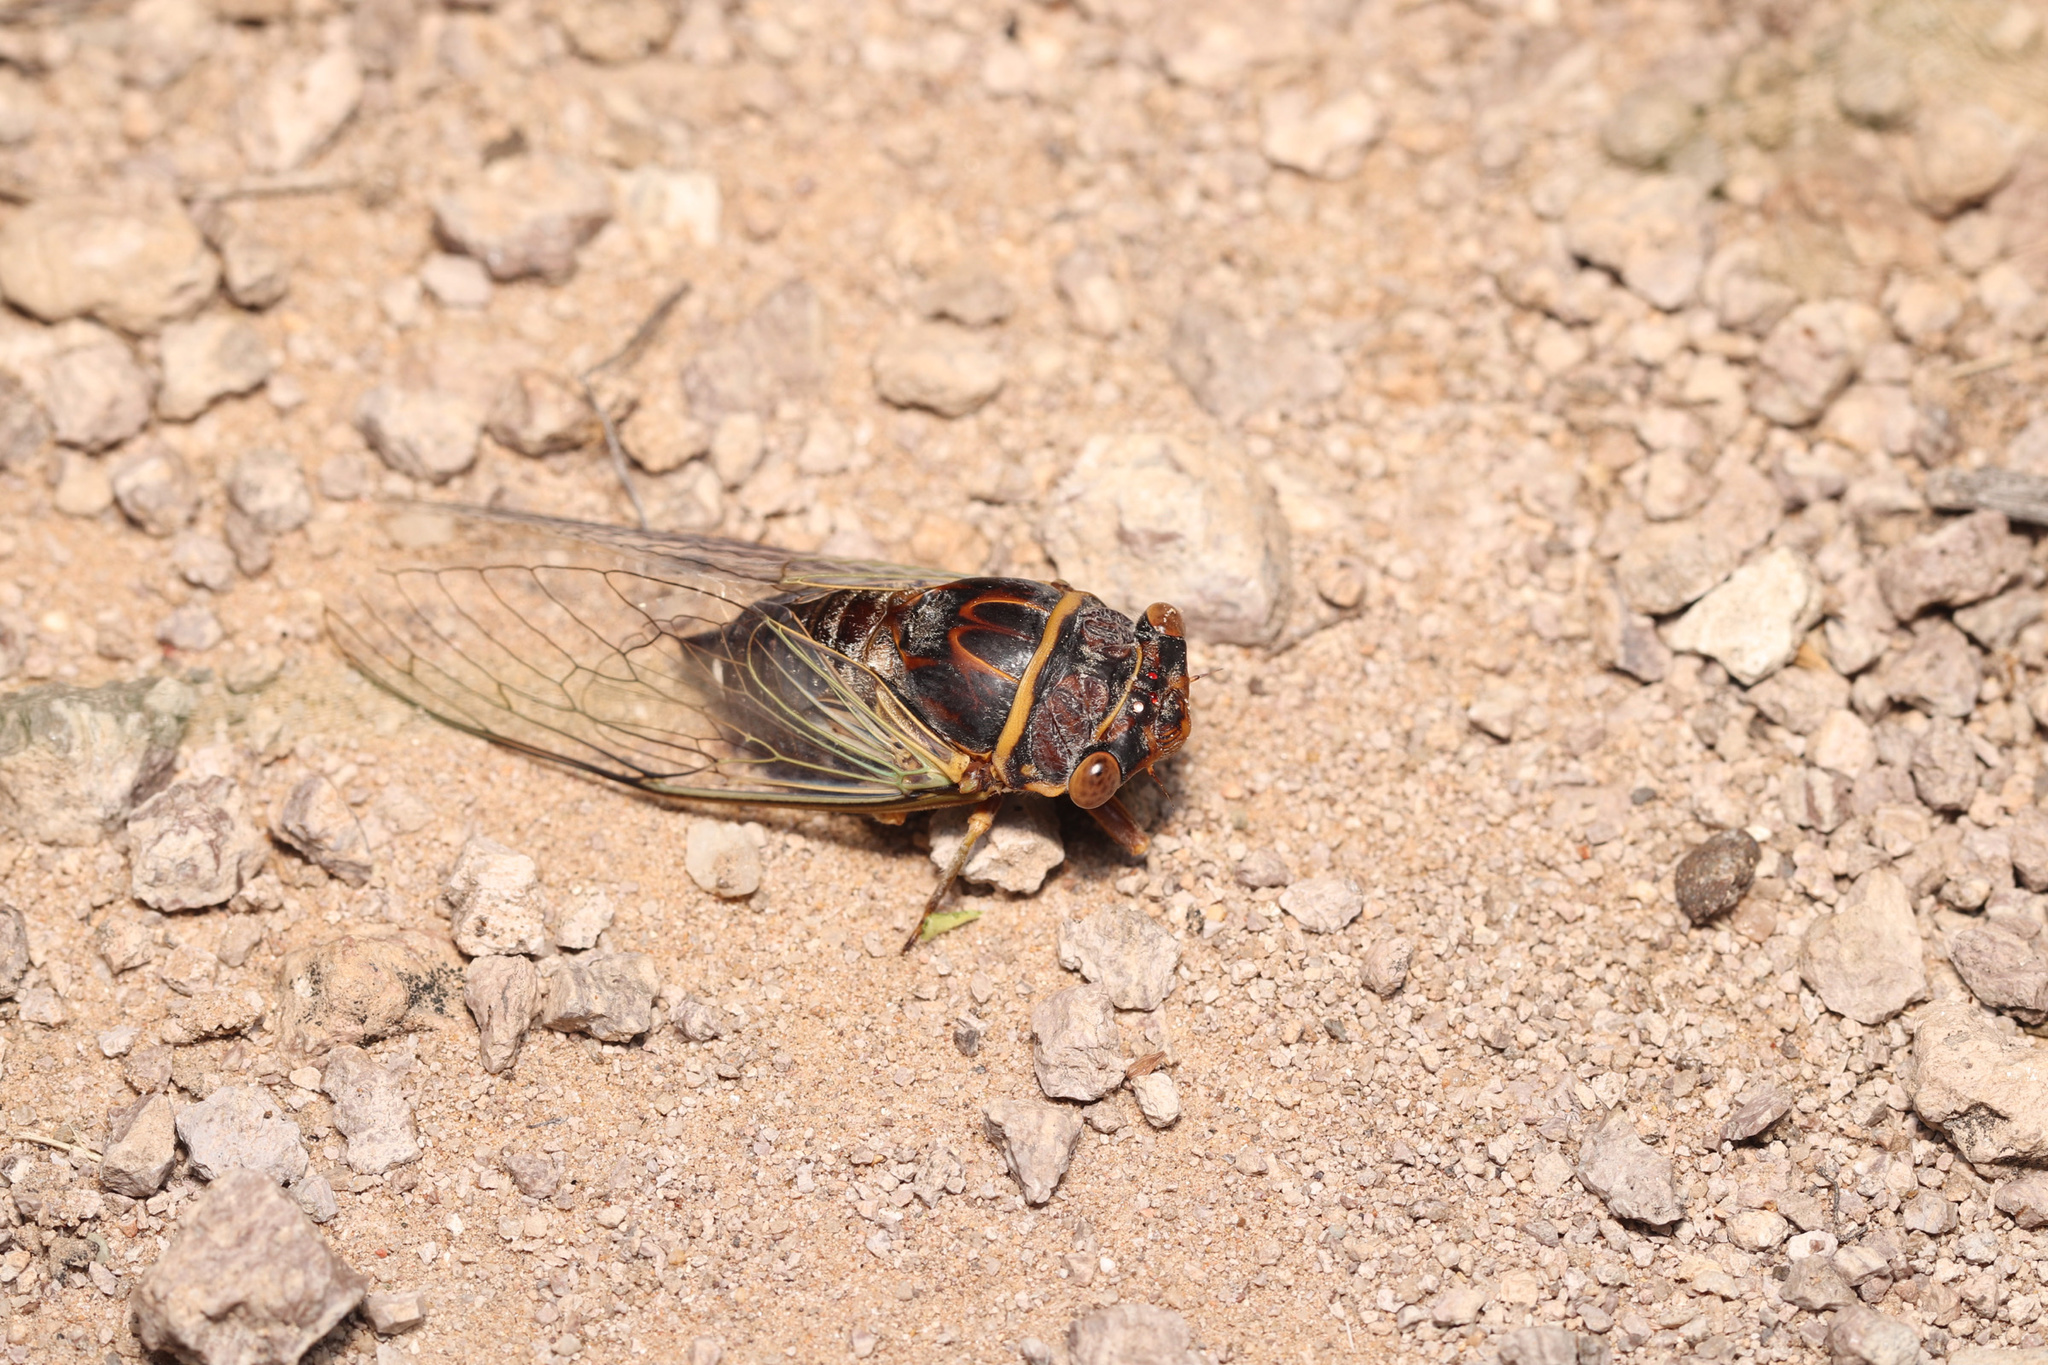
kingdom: Animalia
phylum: Arthropoda
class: Insecta
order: Hemiptera
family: Cicadidae
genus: Diceroprocta
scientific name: Diceroprocta semicincta
